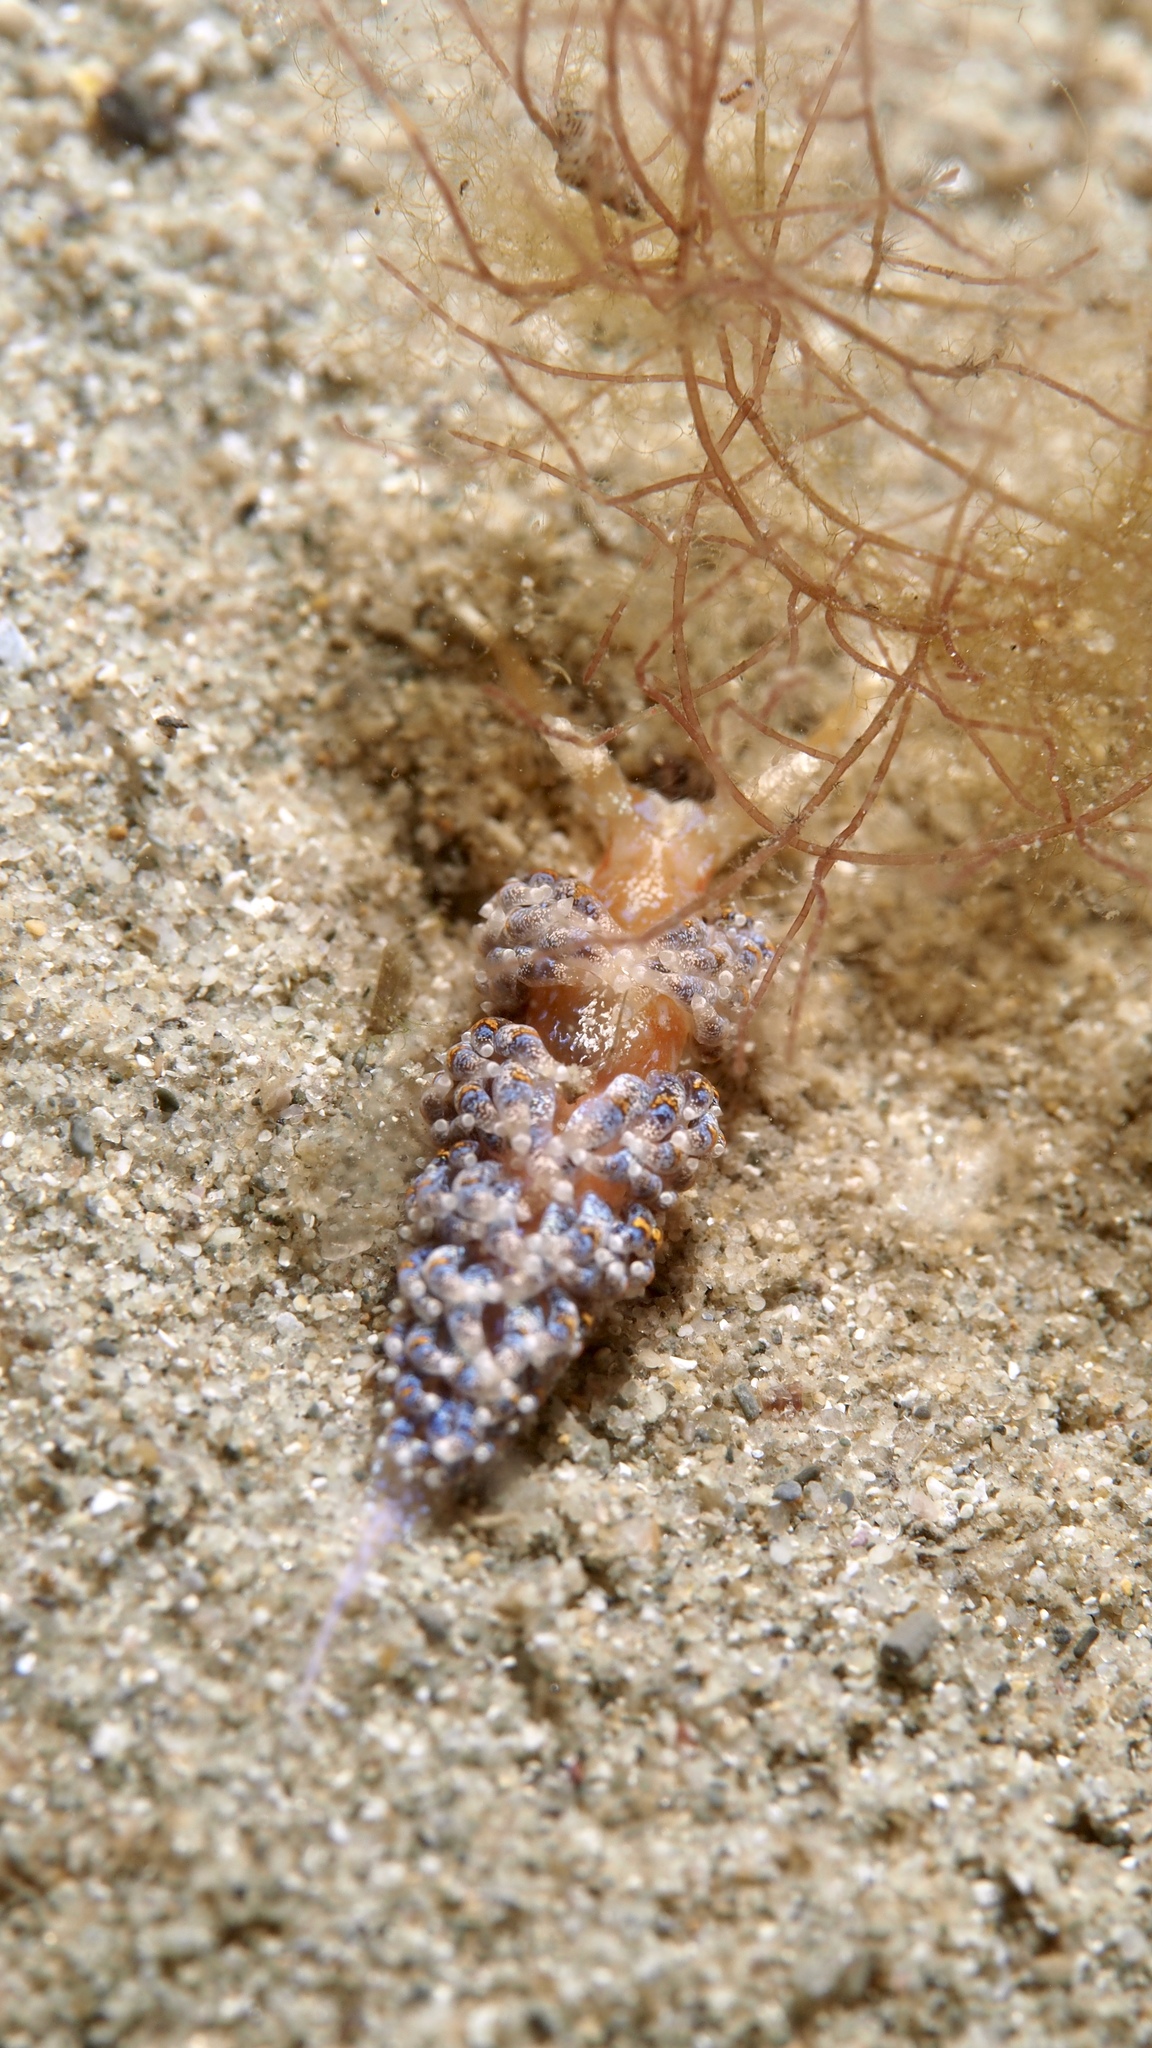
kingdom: Animalia
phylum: Mollusca
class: Gastropoda
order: Nudibranchia
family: Facelinidae
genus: Austraeolis
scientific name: Austraeolis ornata
